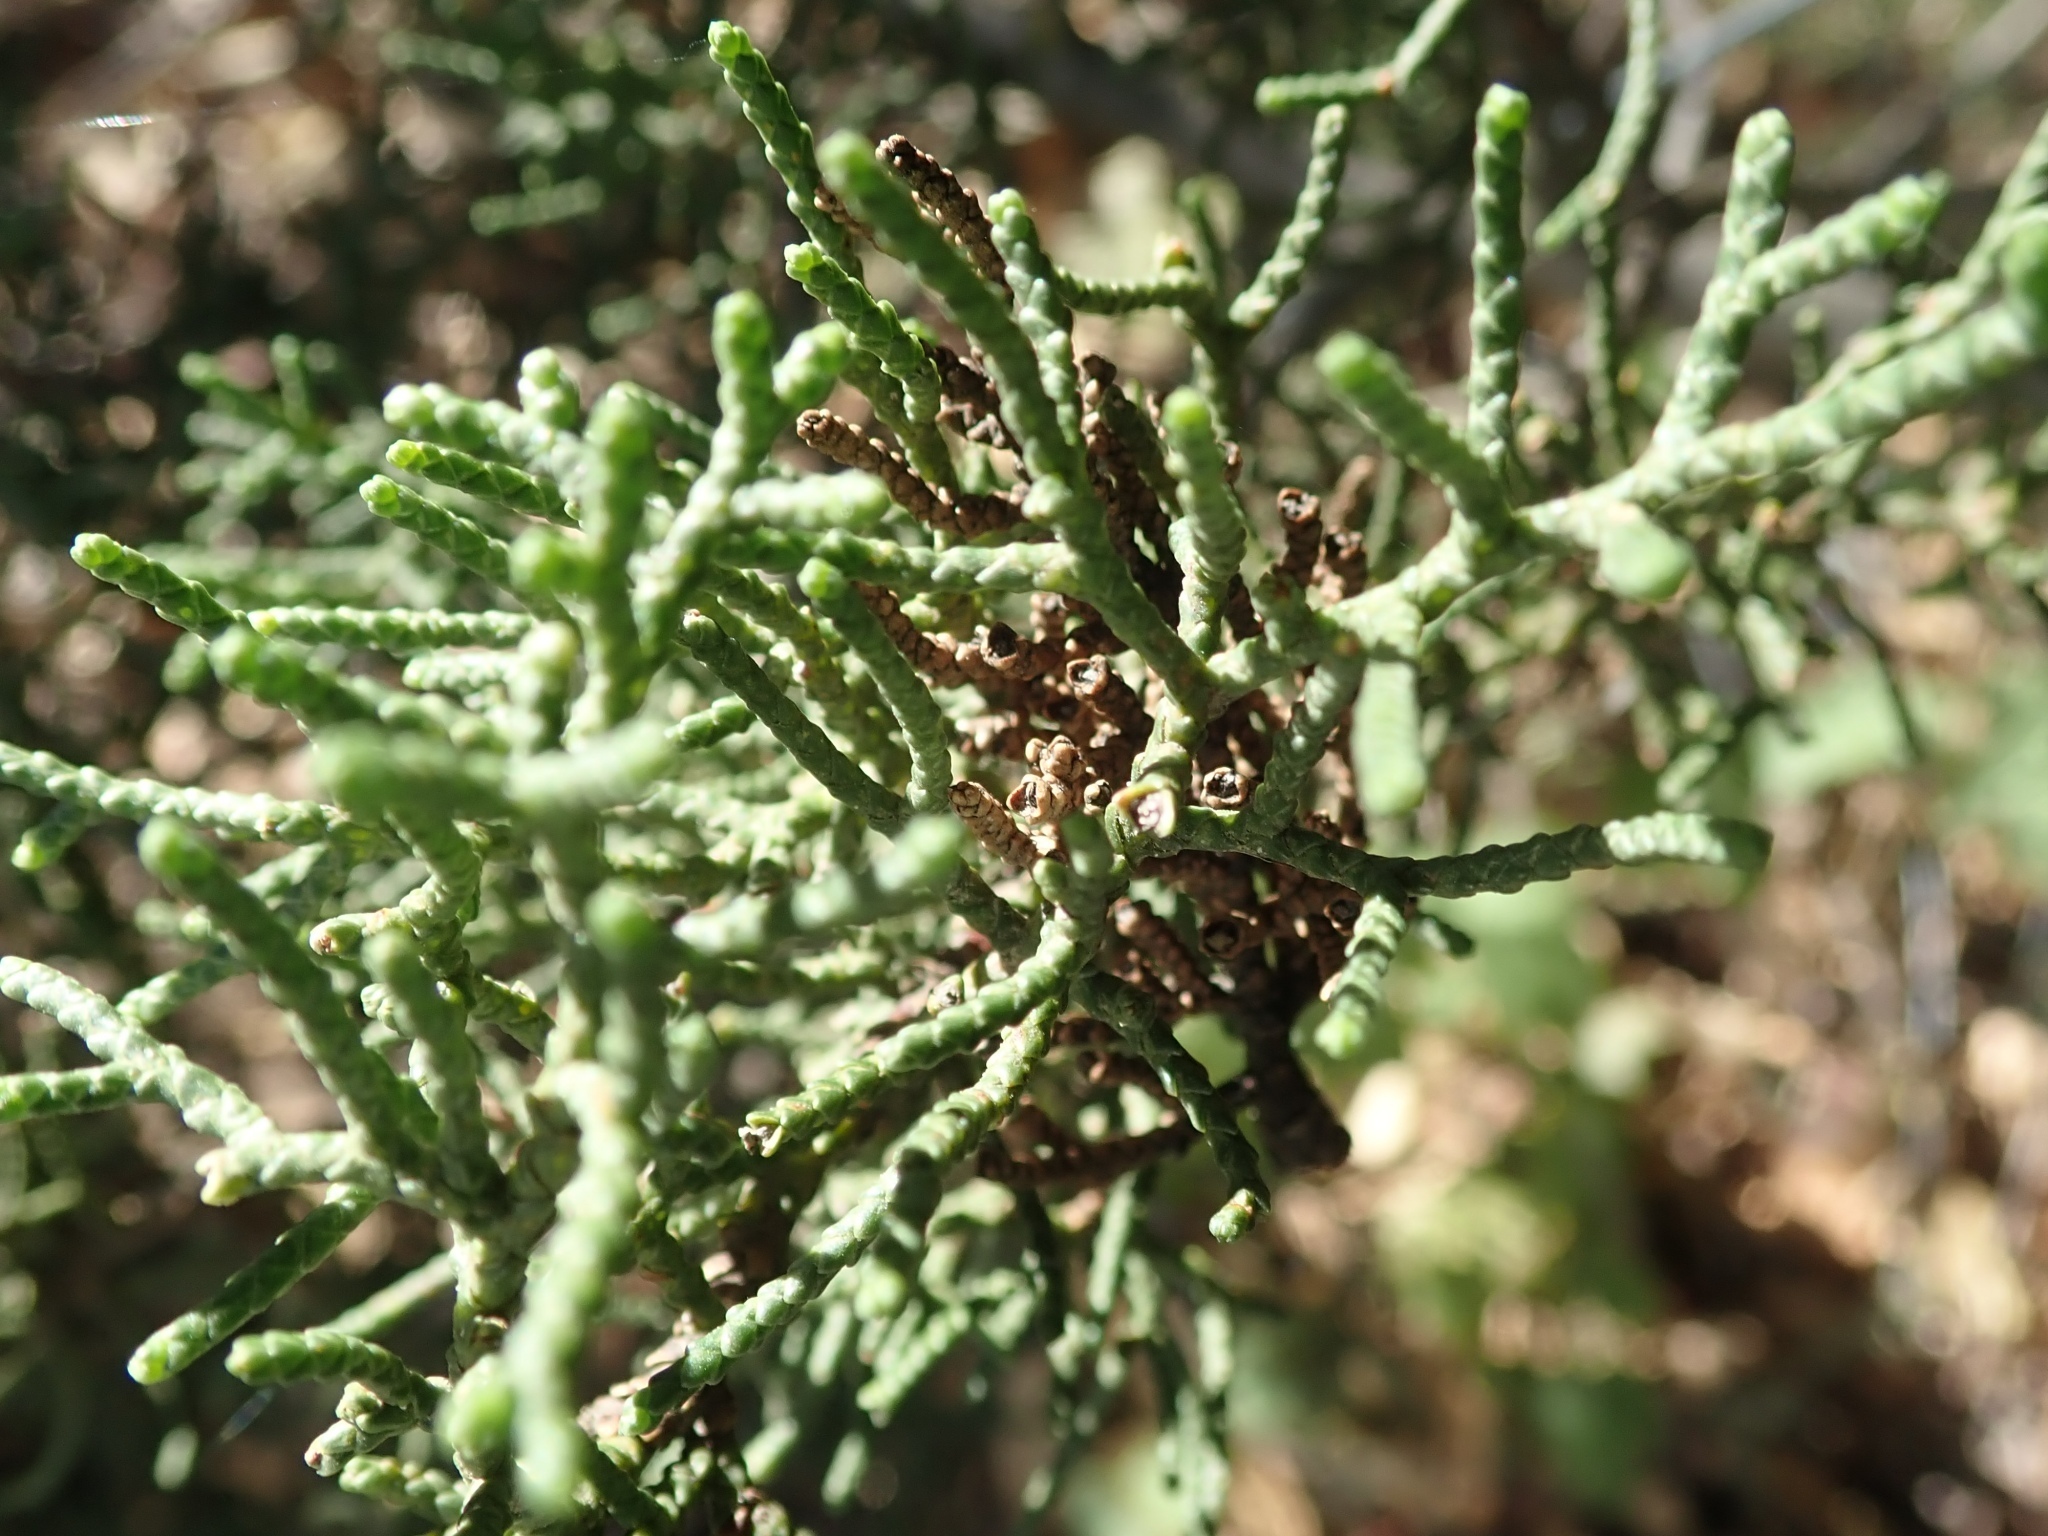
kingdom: Plantae
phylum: Tracheophyta
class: Pinopsida
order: Pinales
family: Cupressaceae
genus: Cupressus
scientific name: Cupressus goveniana
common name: Gowen cypress
